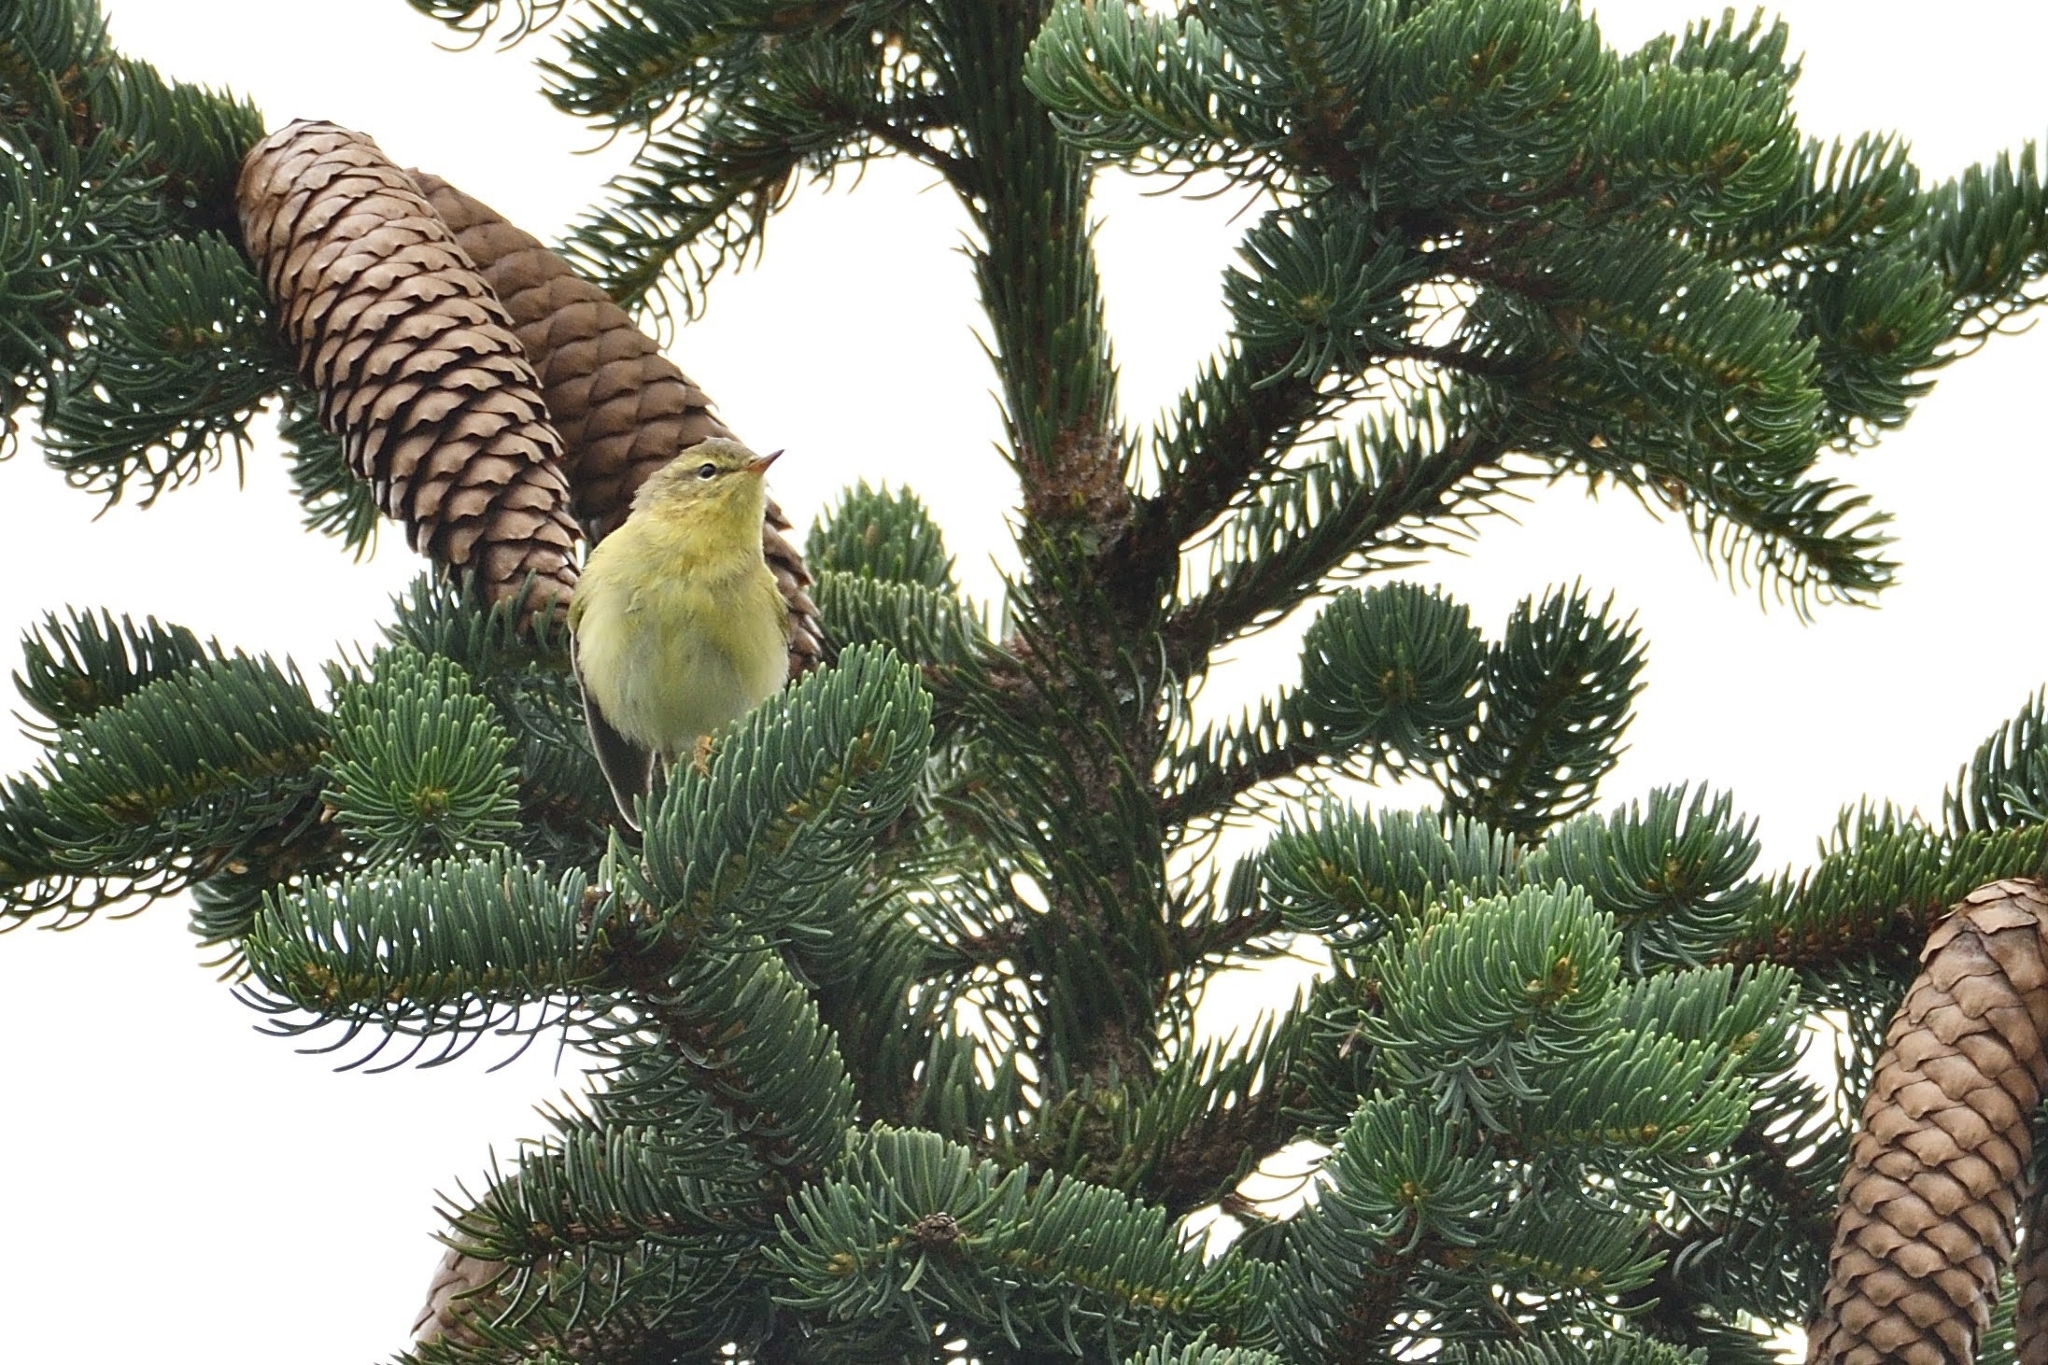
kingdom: Animalia
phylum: Chordata
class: Aves
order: Passeriformes
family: Phylloscopidae
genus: Phylloscopus
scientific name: Phylloscopus trochilus
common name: Willow warbler
